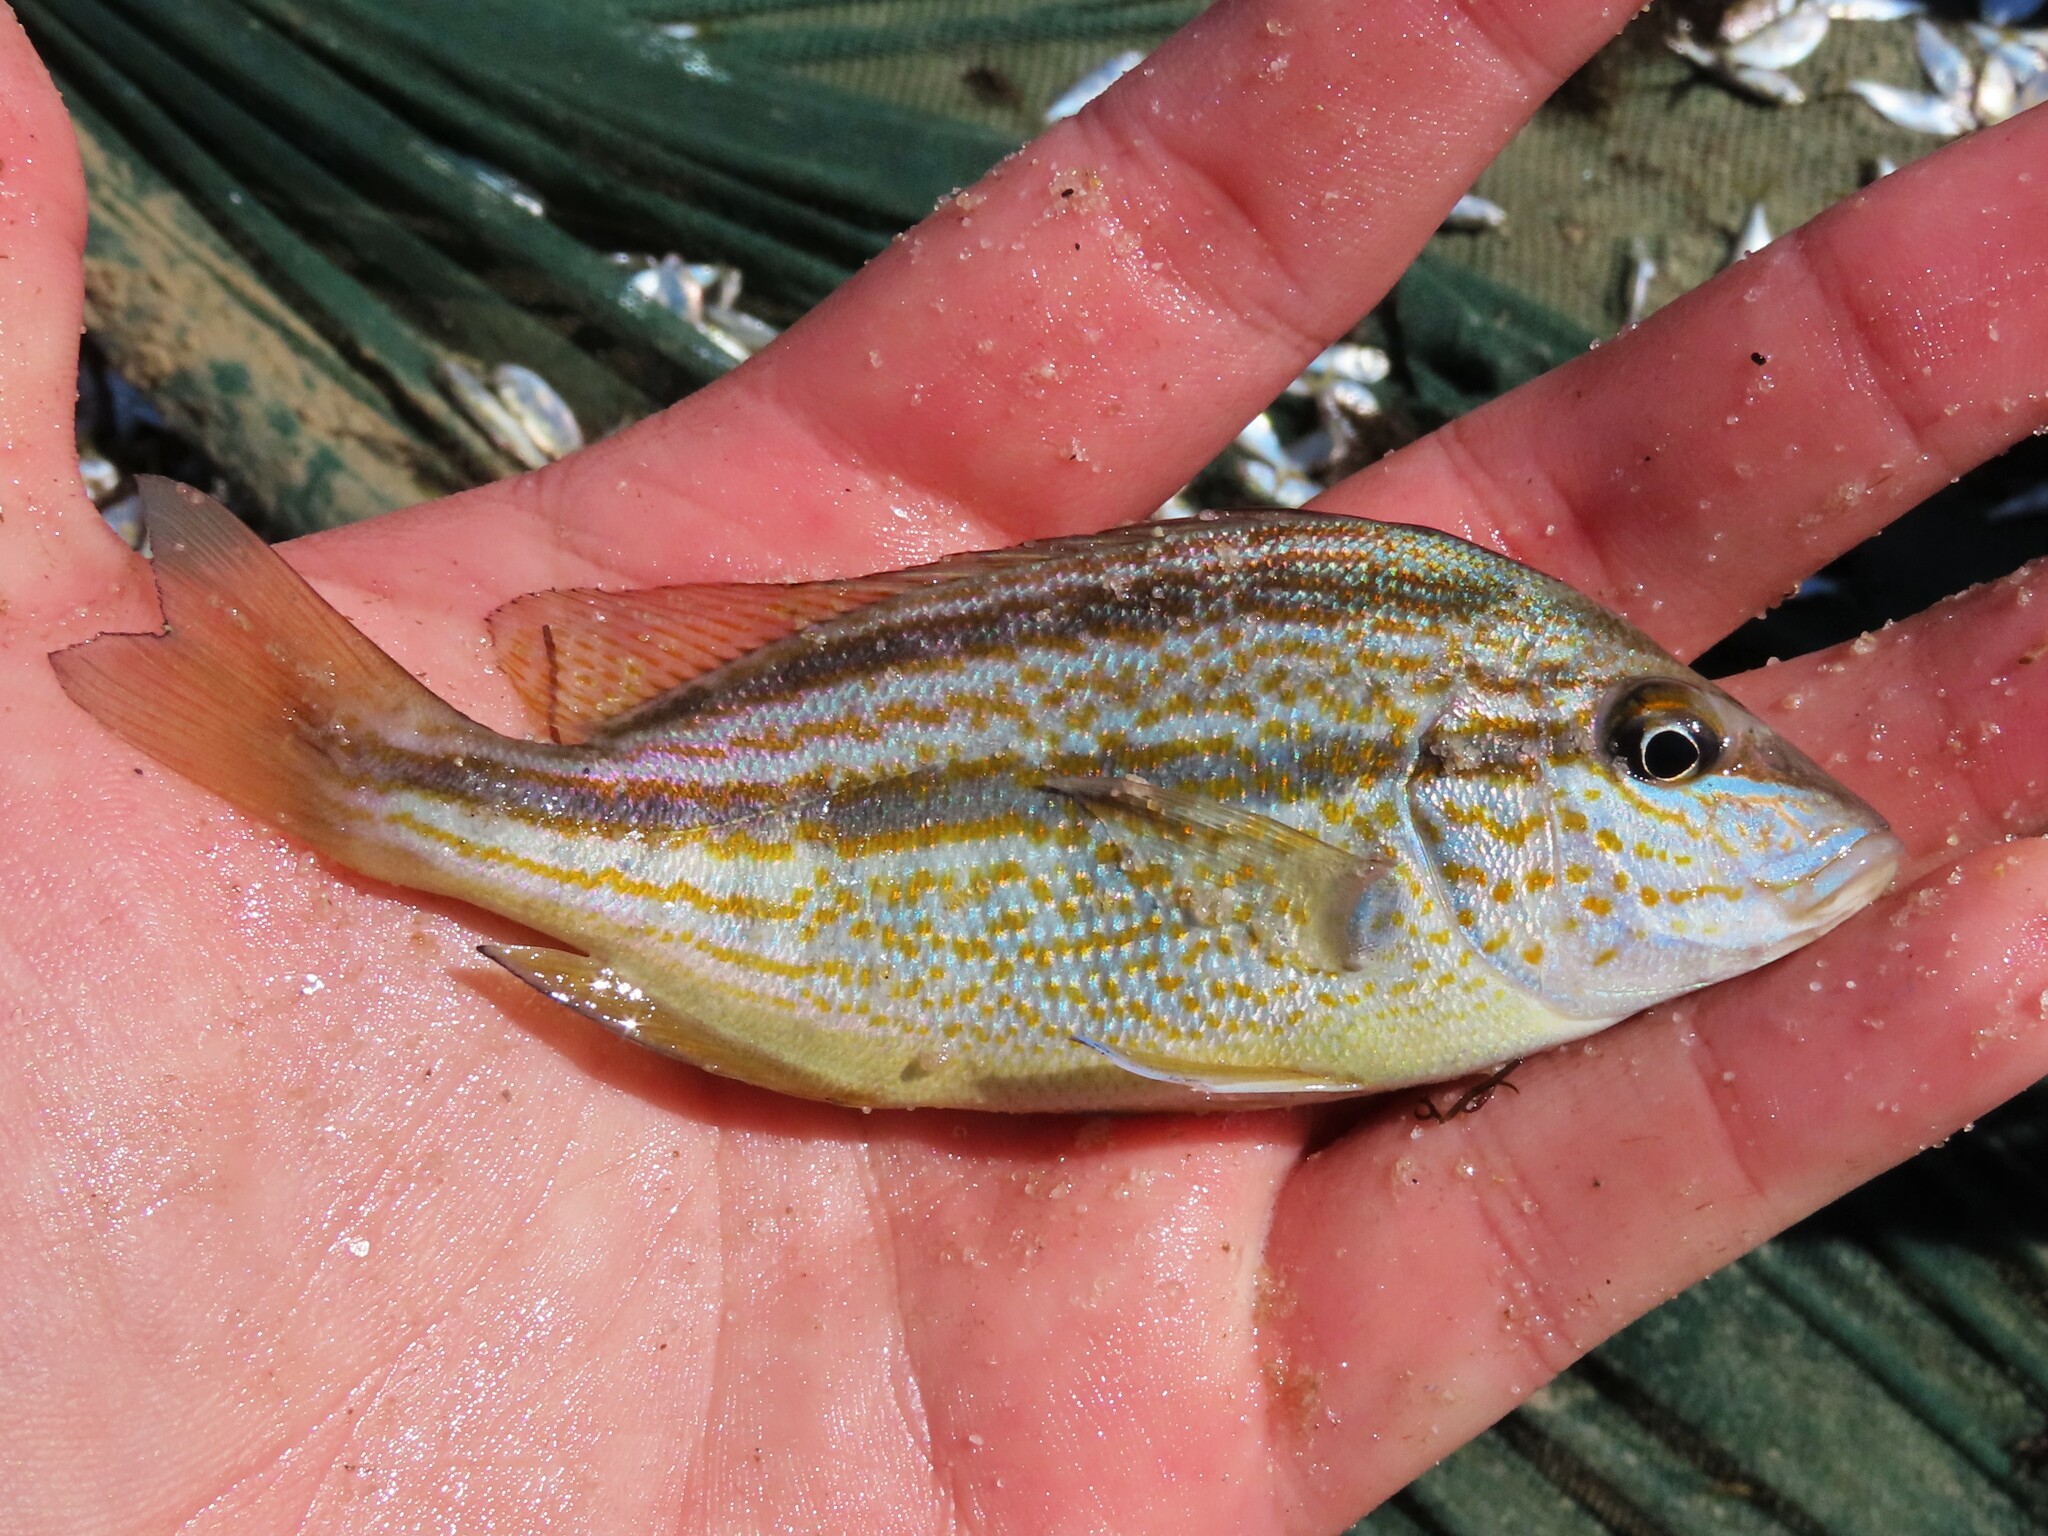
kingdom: Animalia
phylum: Chordata
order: Perciformes
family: Haemulidae
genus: Orthopristis
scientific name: Orthopristis chrysoptera
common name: Pigfish
